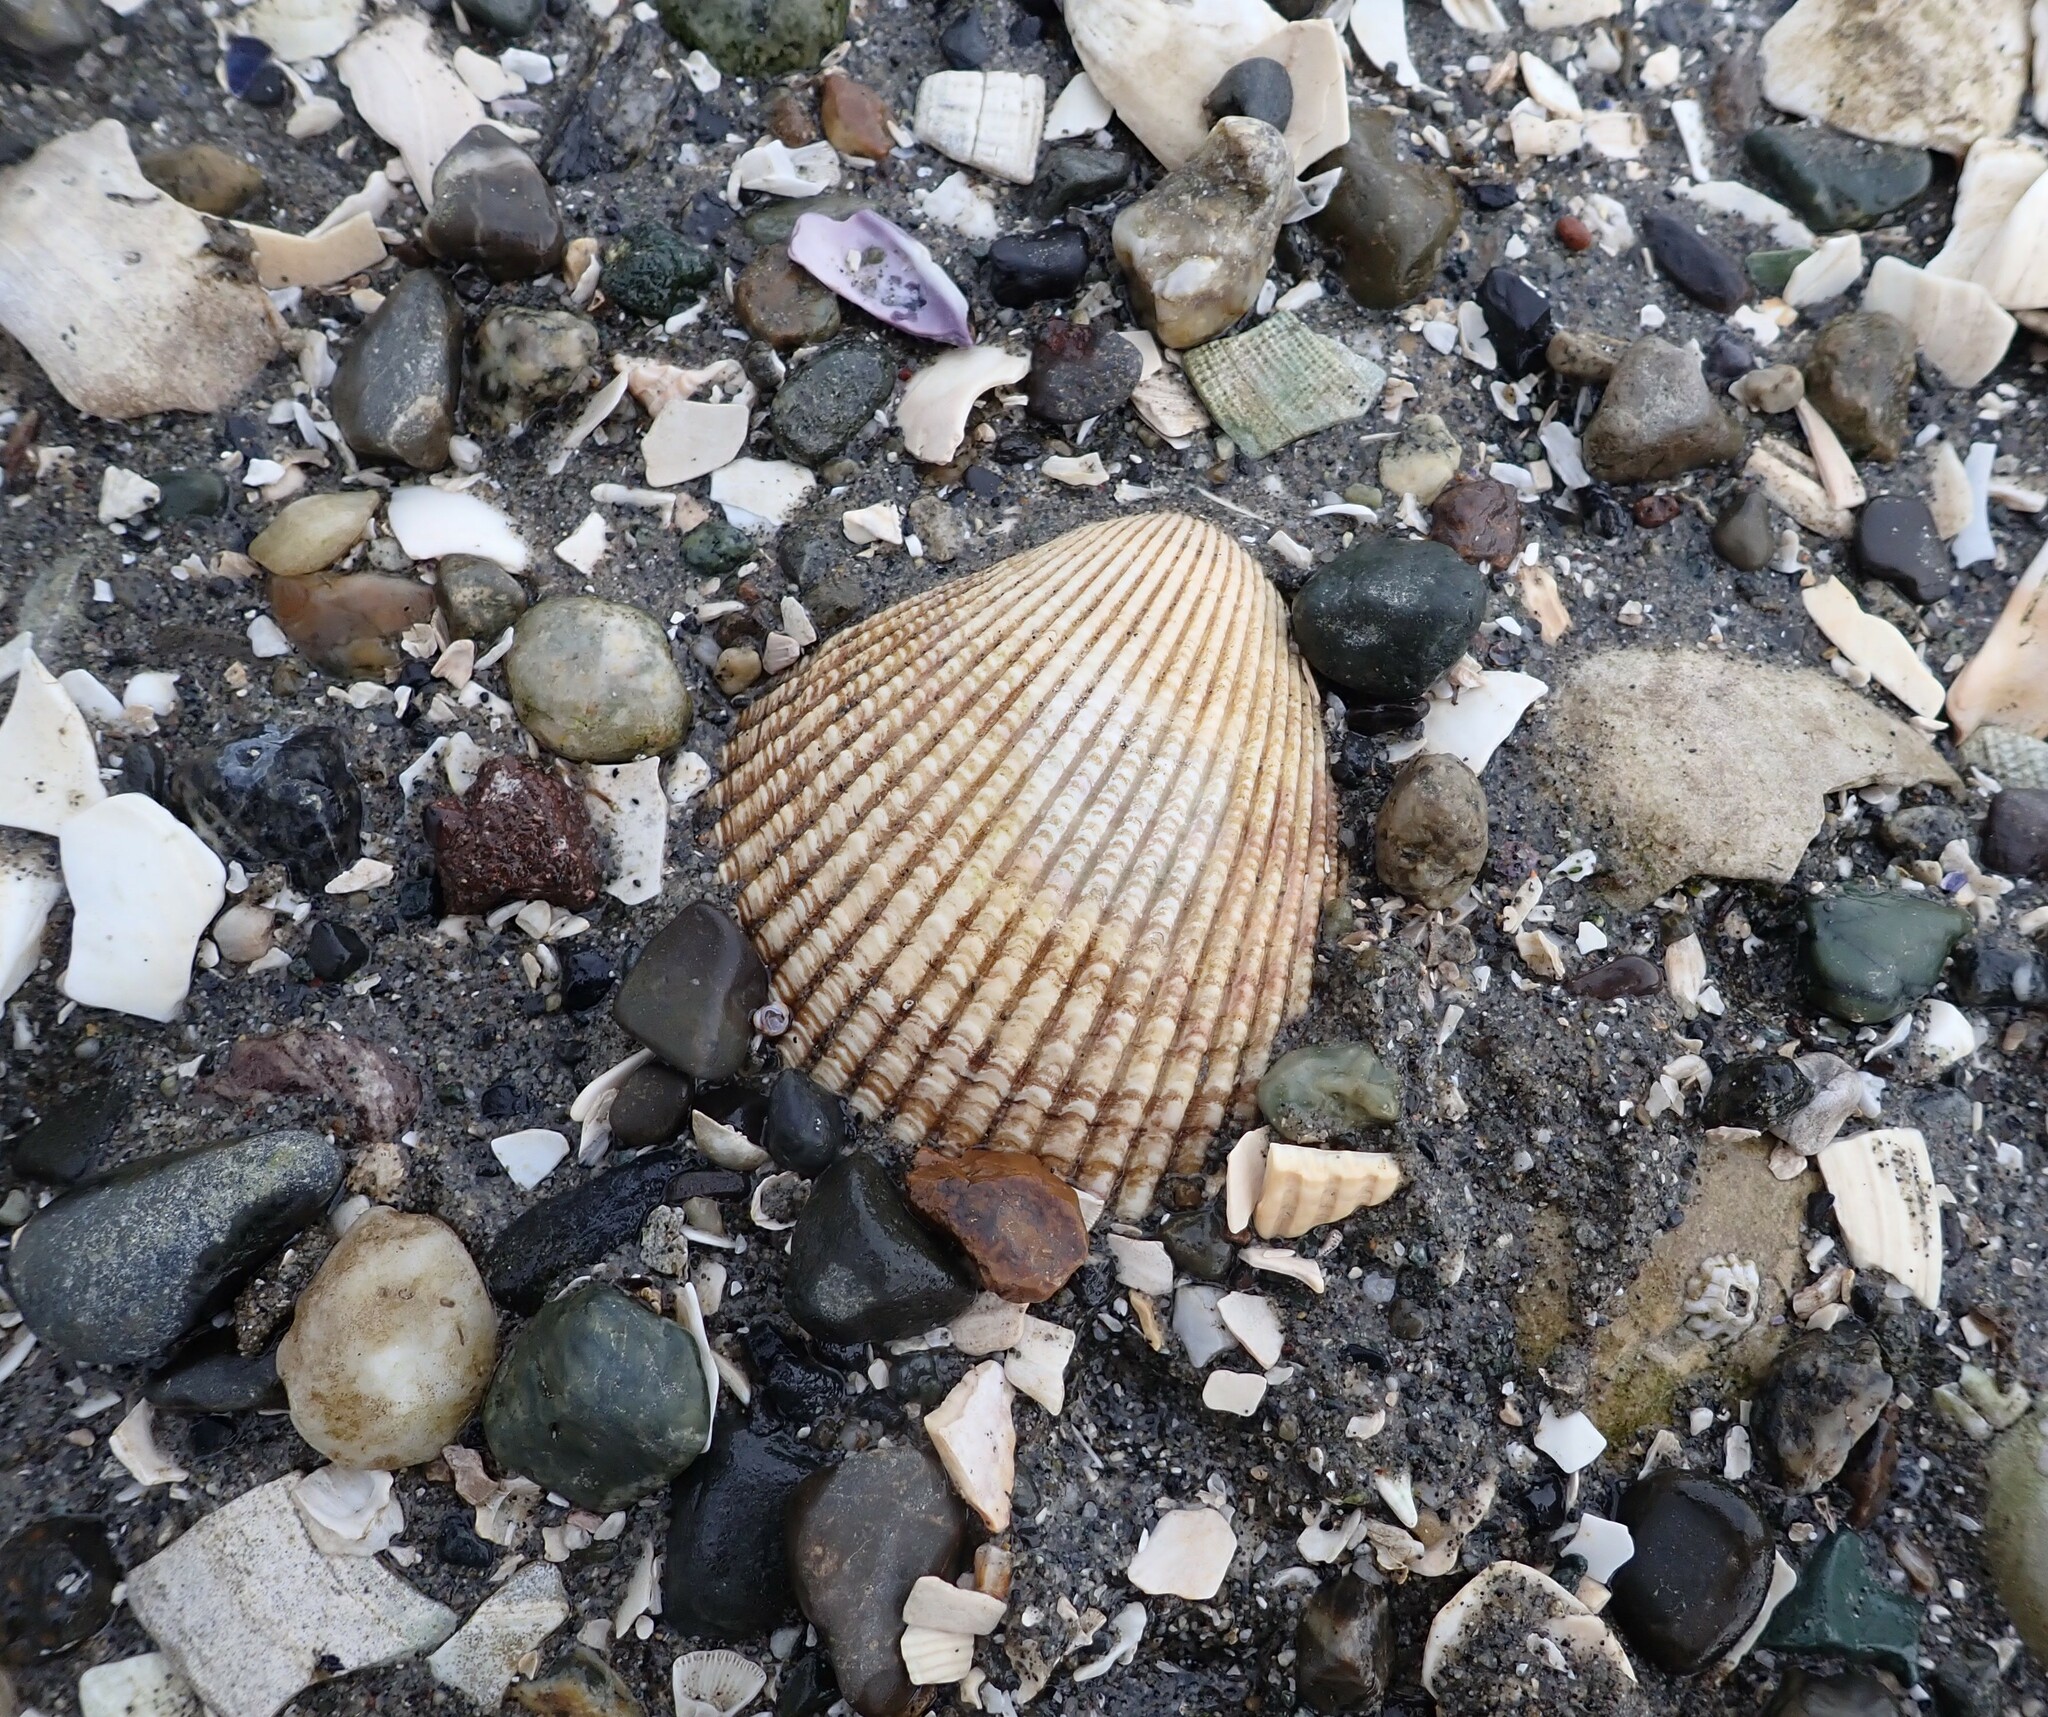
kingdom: Animalia
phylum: Mollusca
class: Bivalvia
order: Cardiida
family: Cardiidae
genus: Clinocardium
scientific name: Clinocardium nuttallii
